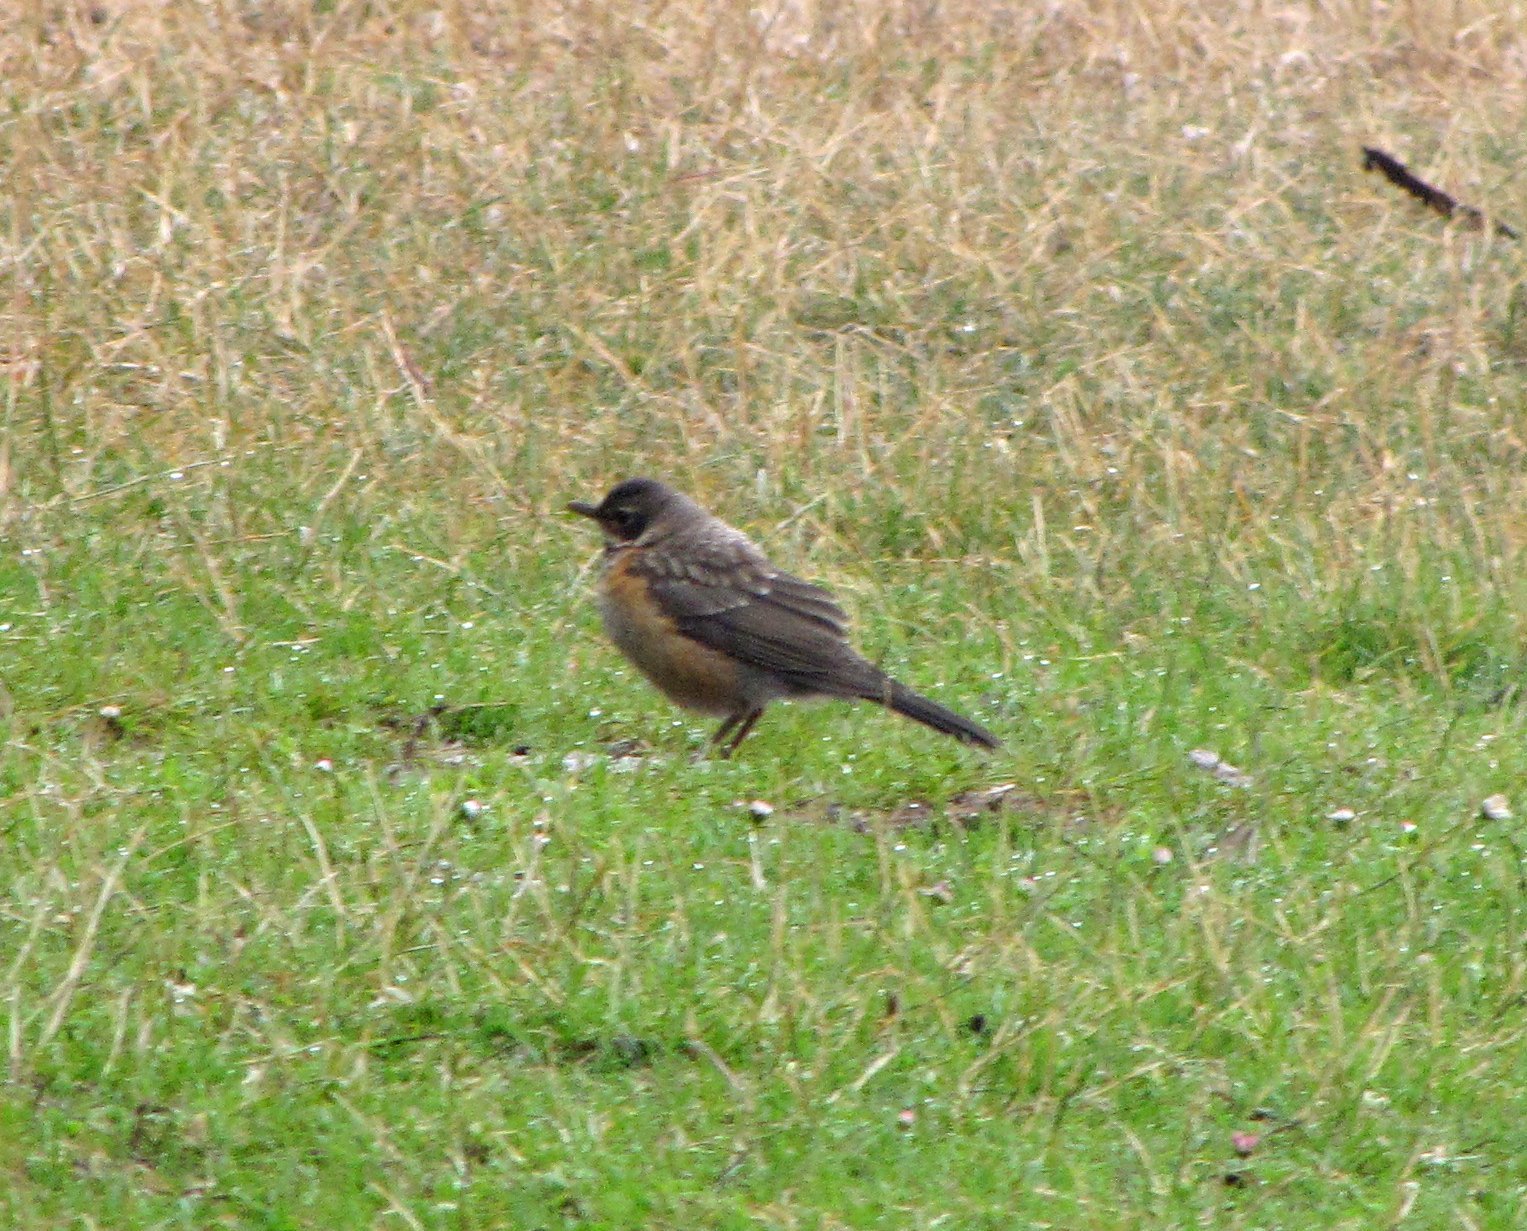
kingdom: Animalia
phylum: Chordata
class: Aves
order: Passeriformes
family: Turdidae
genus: Turdus
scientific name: Turdus migratorius
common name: American robin
